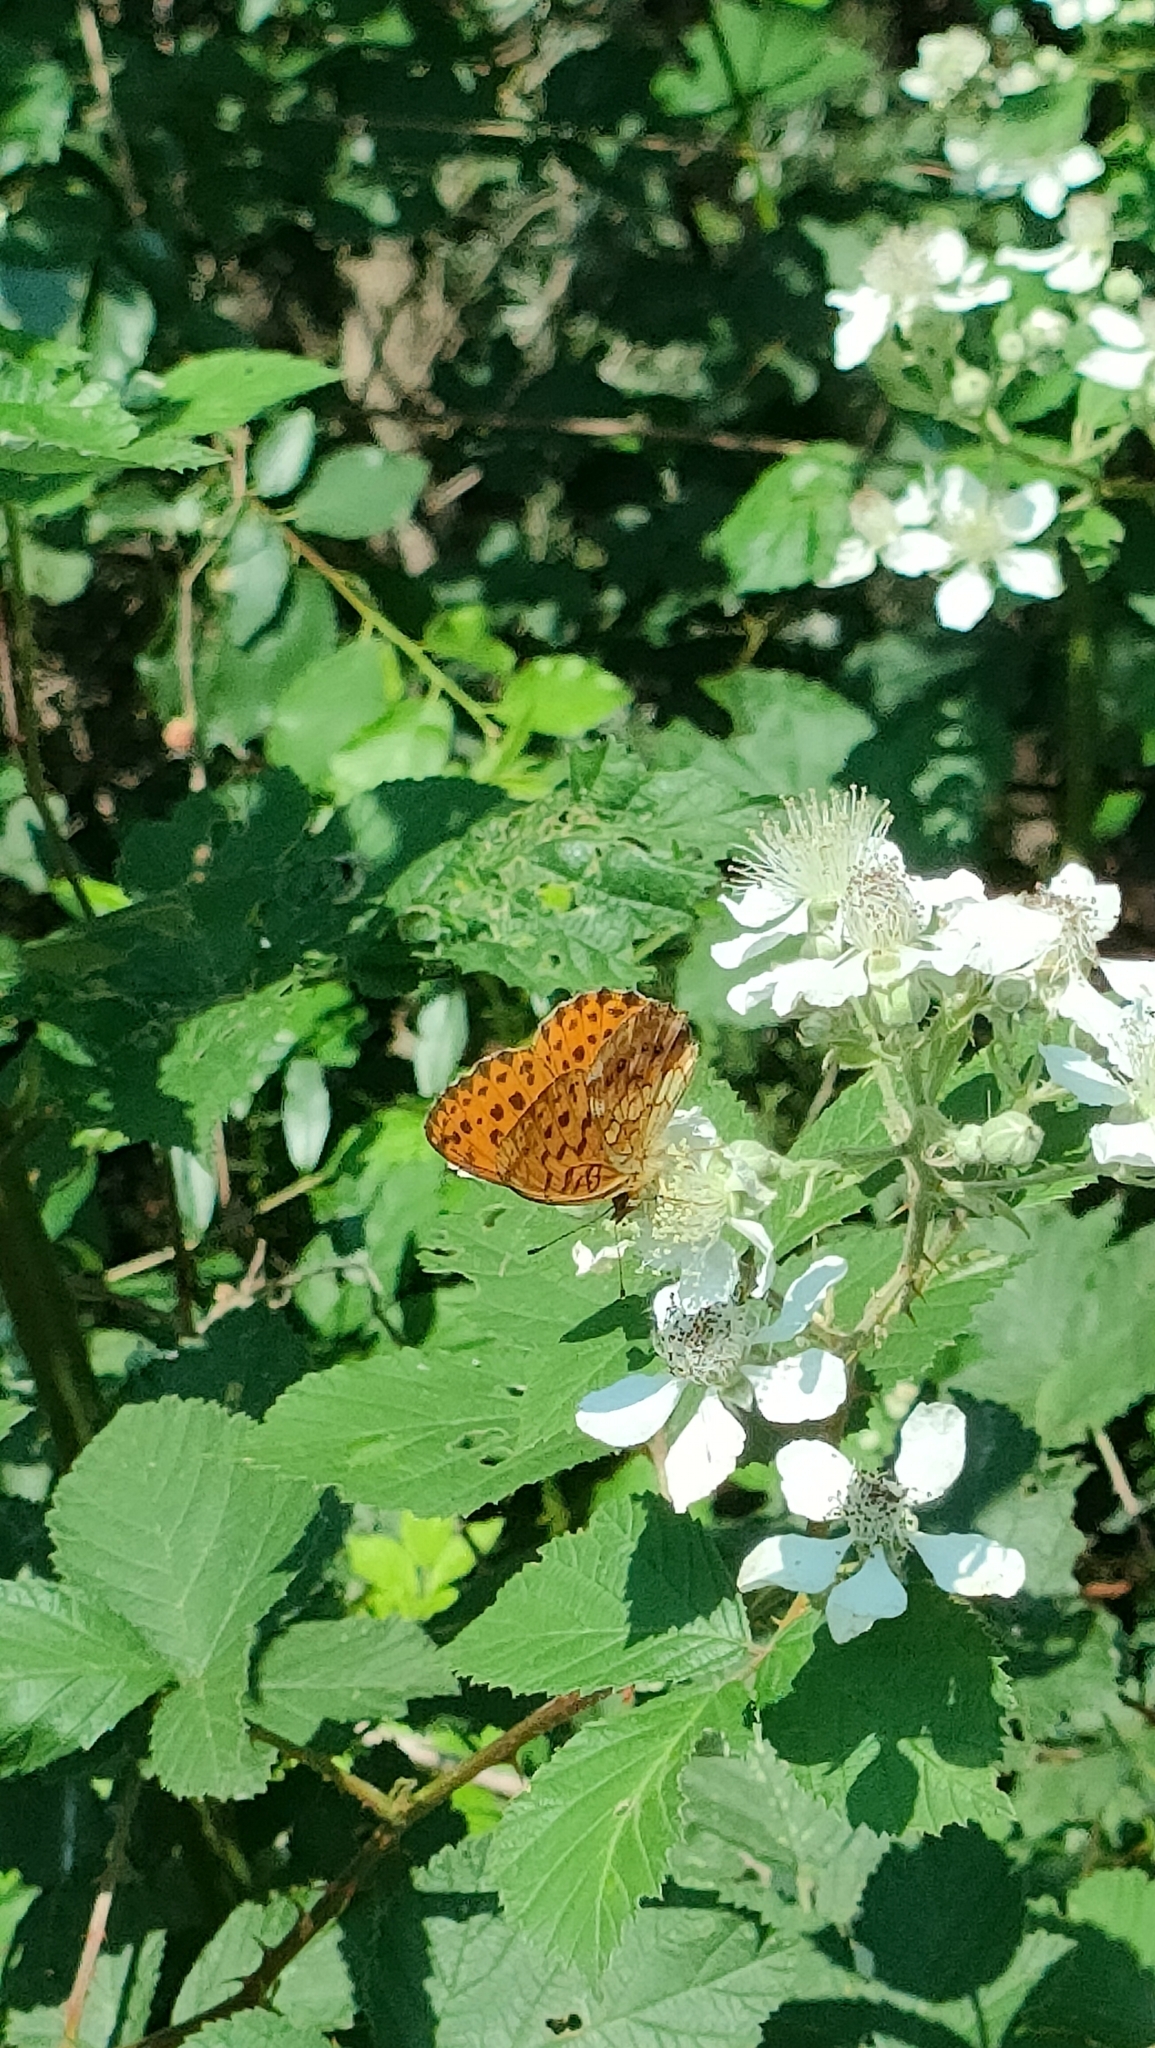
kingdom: Animalia
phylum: Arthropoda
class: Insecta
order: Lepidoptera
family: Nymphalidae
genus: Brenthis
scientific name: Brenthis daphne
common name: Marbled fritillary
